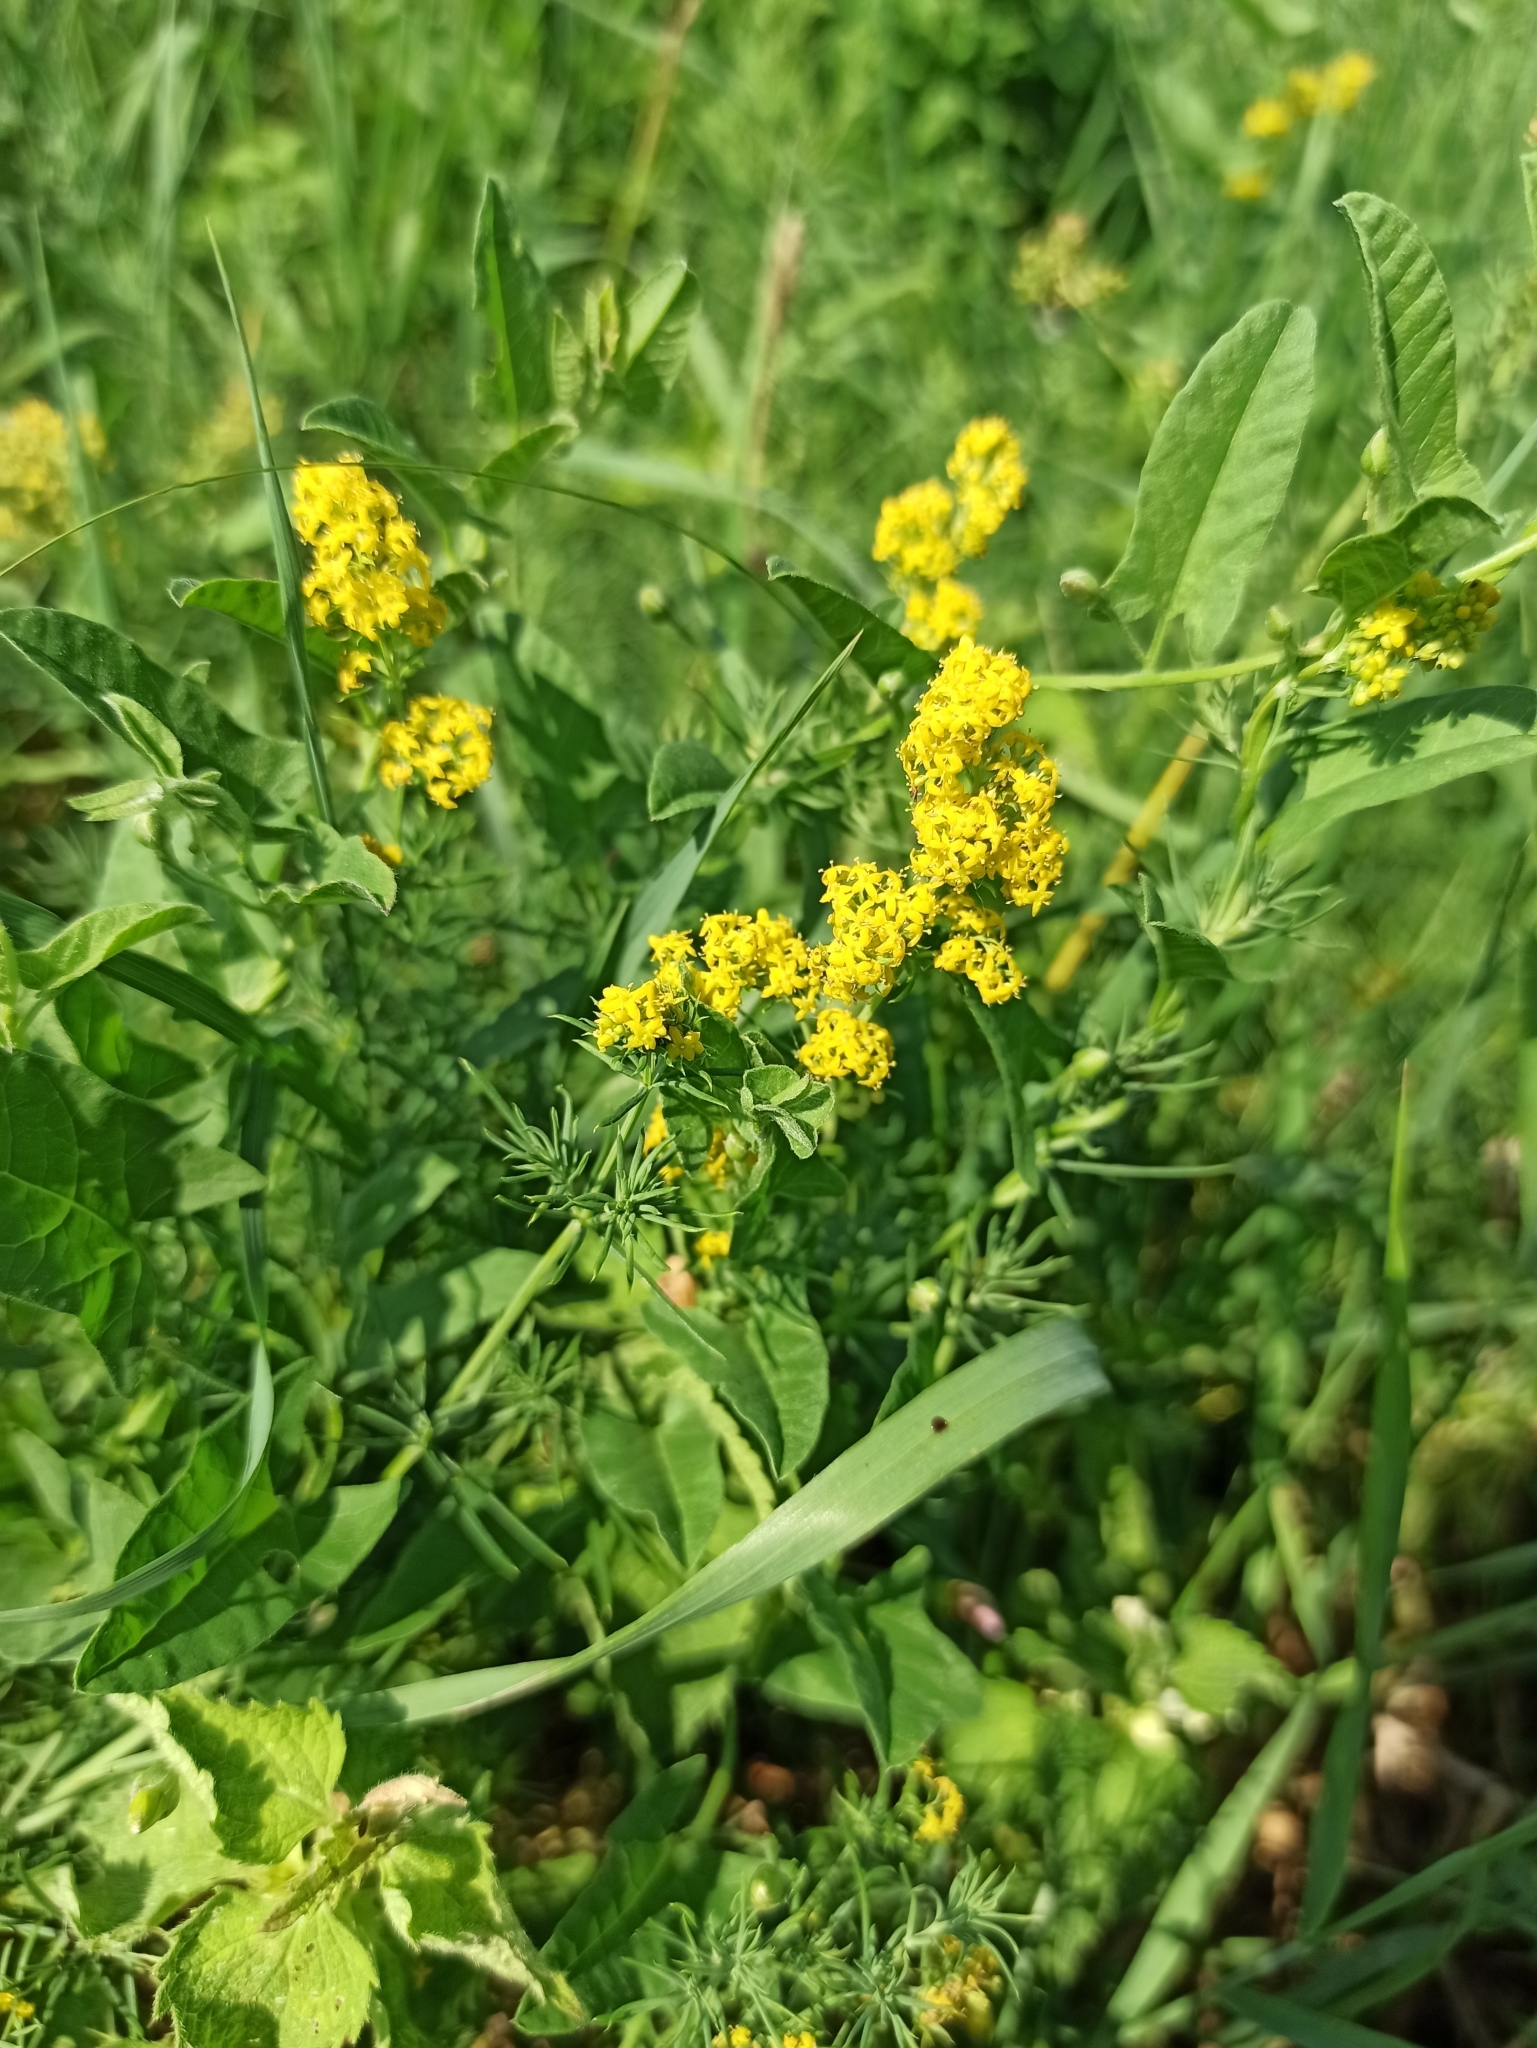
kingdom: Plantae
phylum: Tracheophyta
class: Magnoliopsida
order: Gentianales
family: Rubiaceae
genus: Galium
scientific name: Galium verum
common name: Lady's bedstraw
